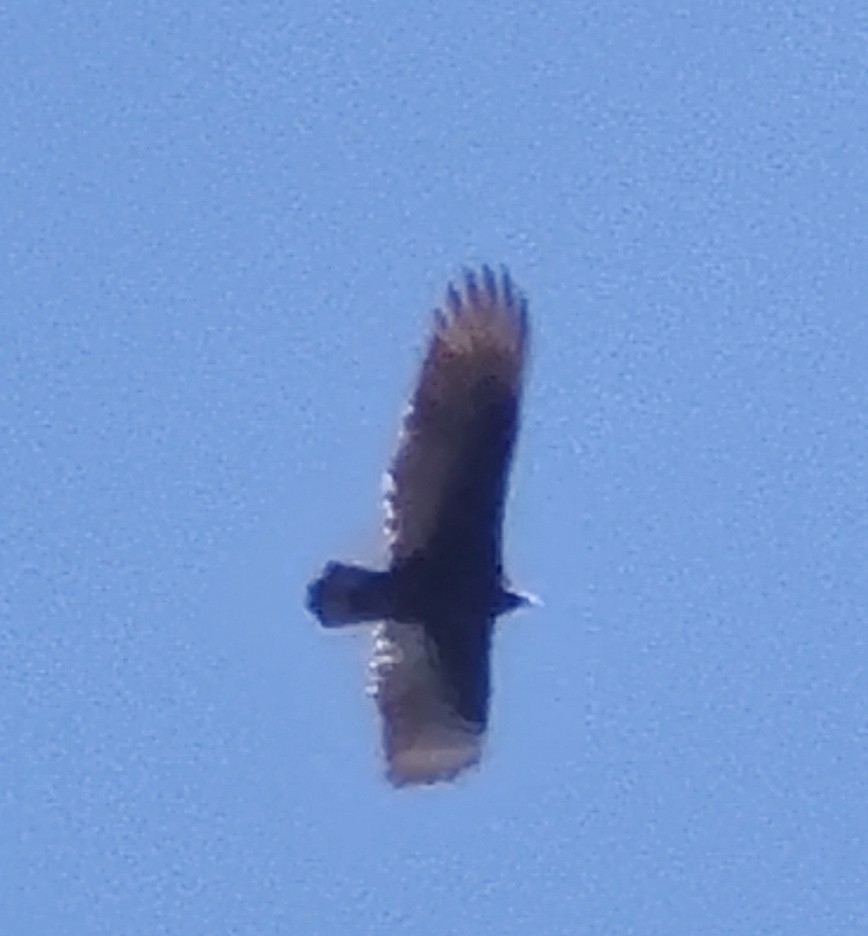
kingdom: Animalia
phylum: Chordata
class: Aves
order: Accipitriformes
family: Cathartidae
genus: Cathartes
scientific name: Cathartes aura
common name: Turkey vulture
